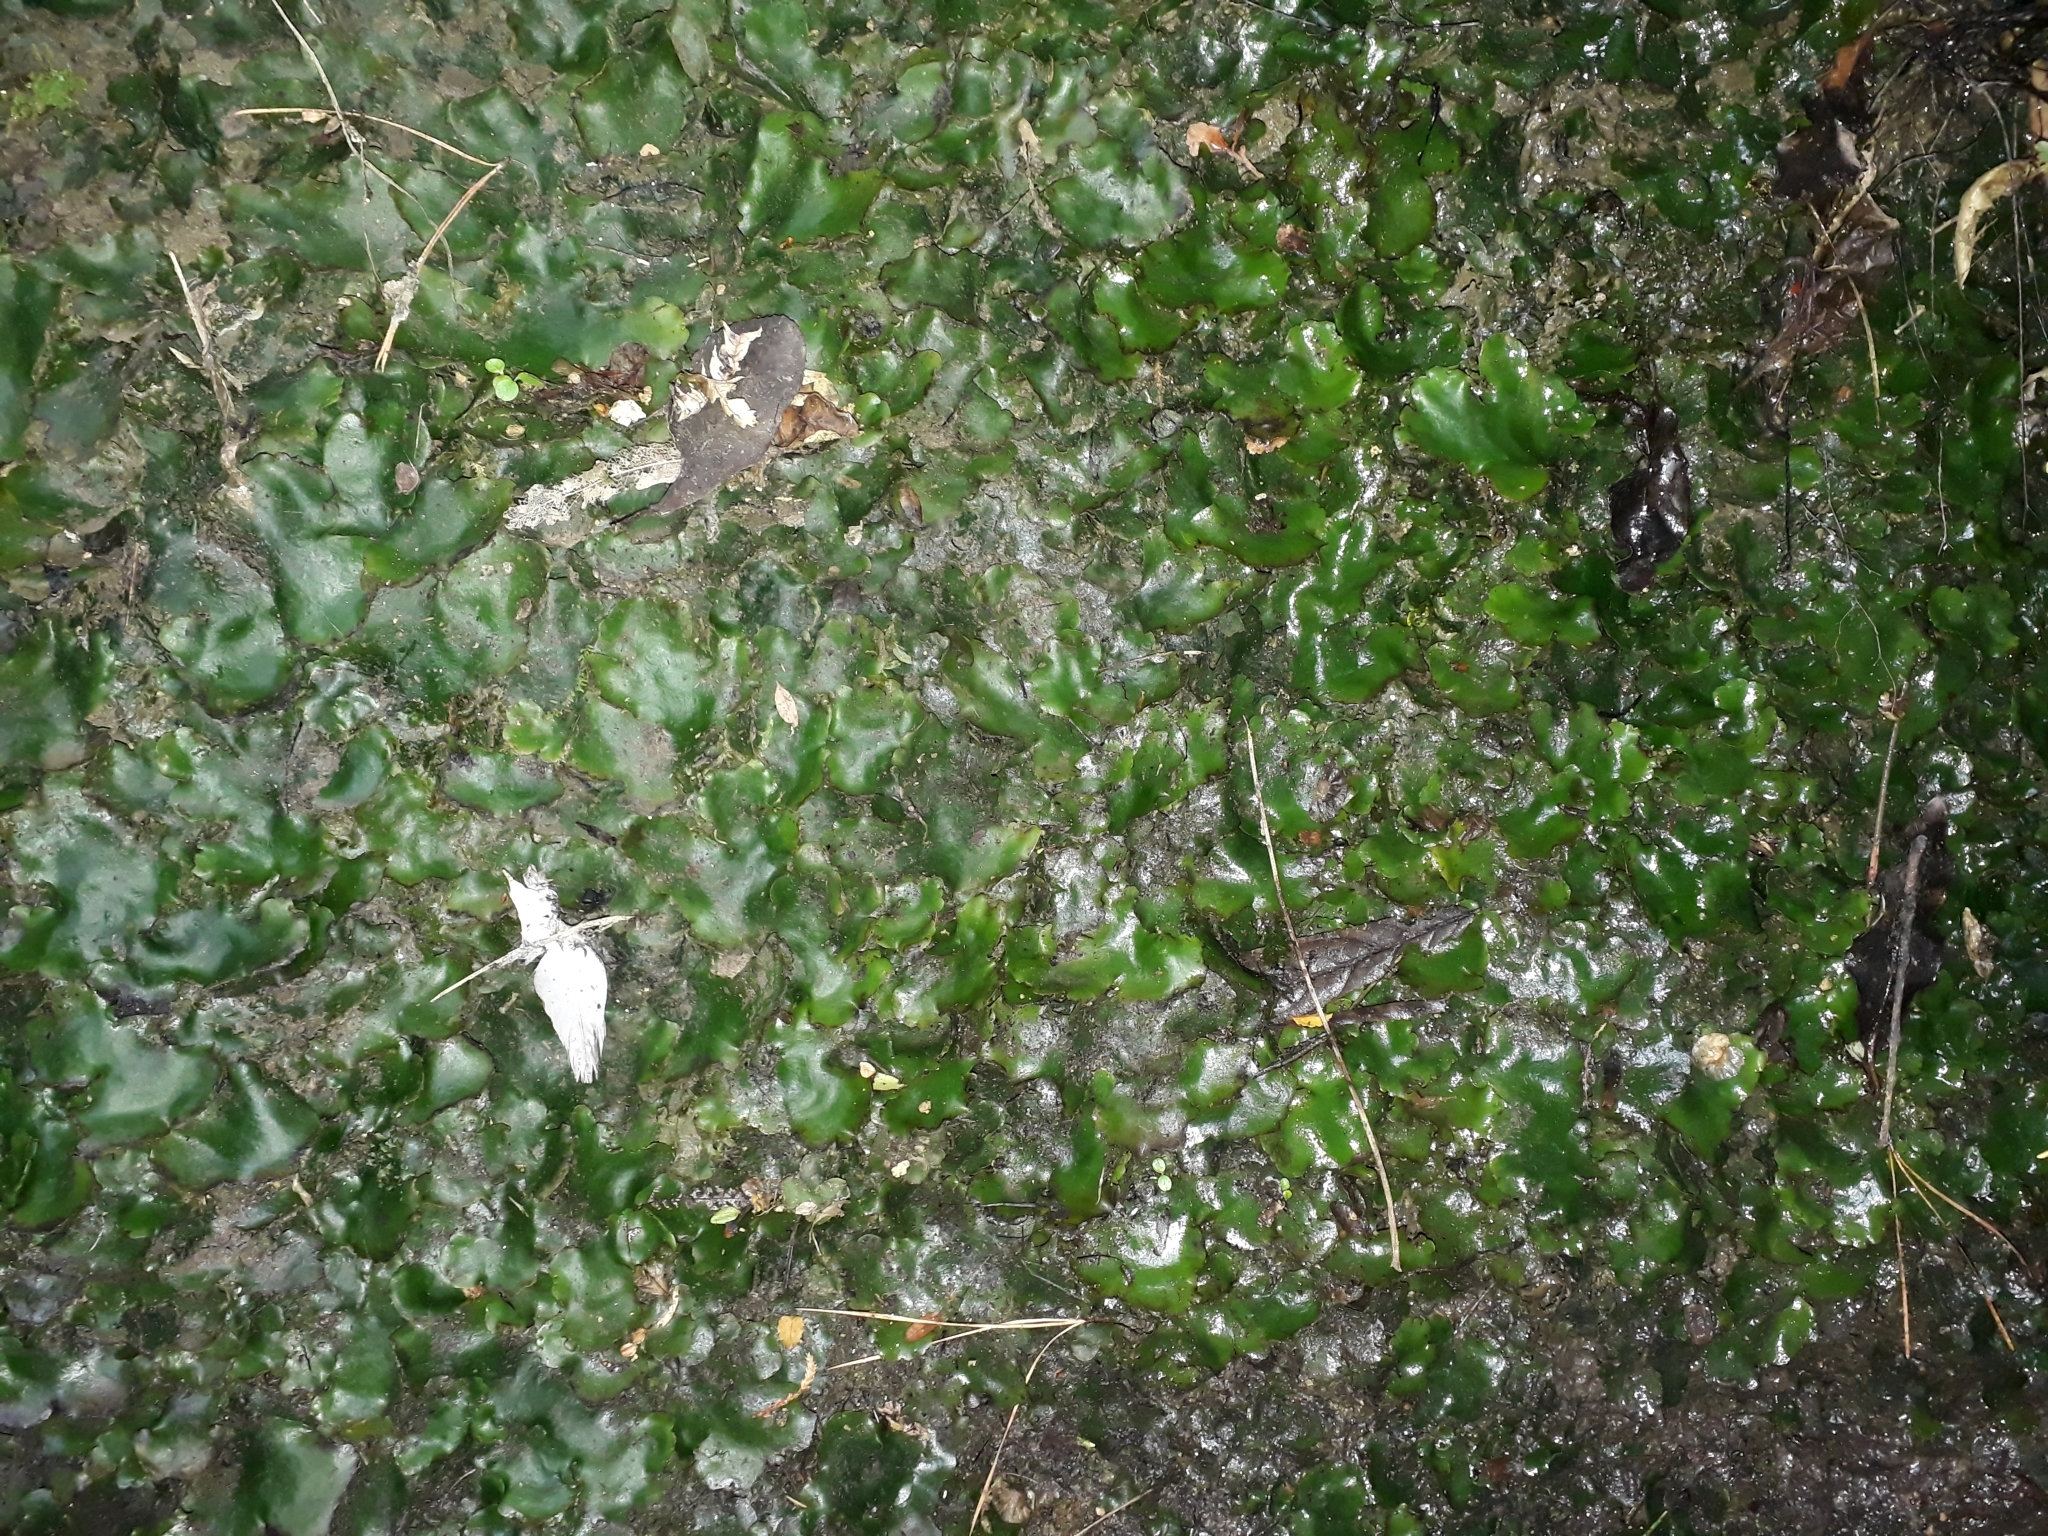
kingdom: Plantae
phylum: Marchantiophyta
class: Marchantiopsida
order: Marchantiales
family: Monocleaceae
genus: Monoclea
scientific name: Monoclea forsteri
